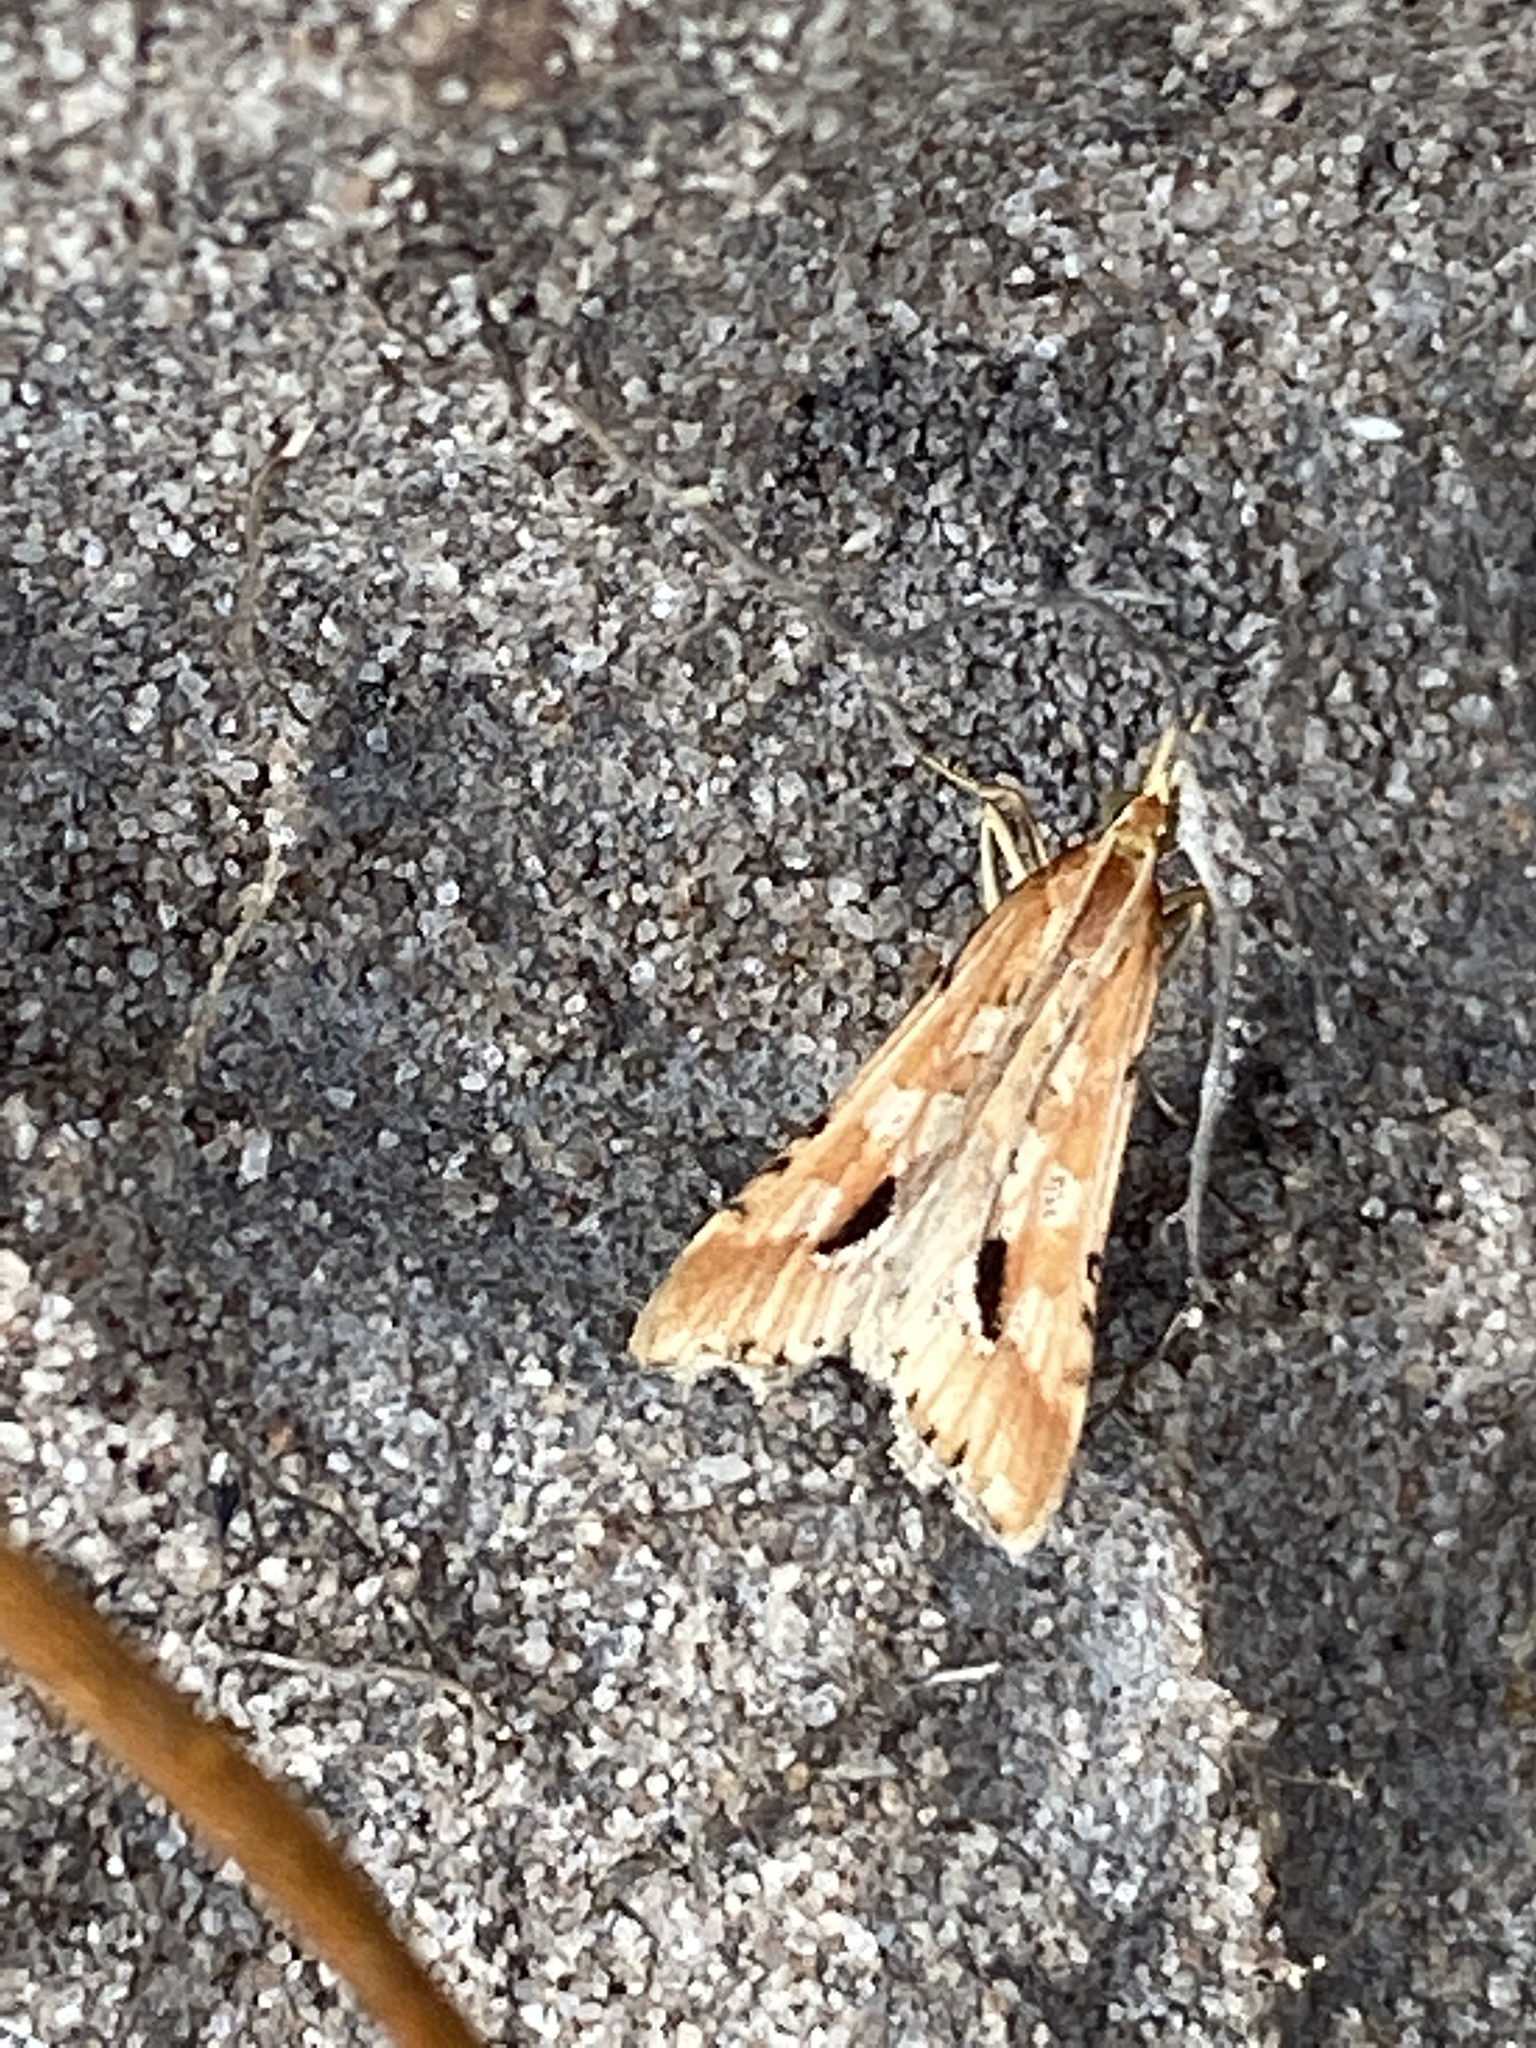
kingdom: Animalia
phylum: Arthropoda
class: Insecta
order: Lepidoptera
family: Crambidae
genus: Diasemia
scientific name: Diasemia monostigma
